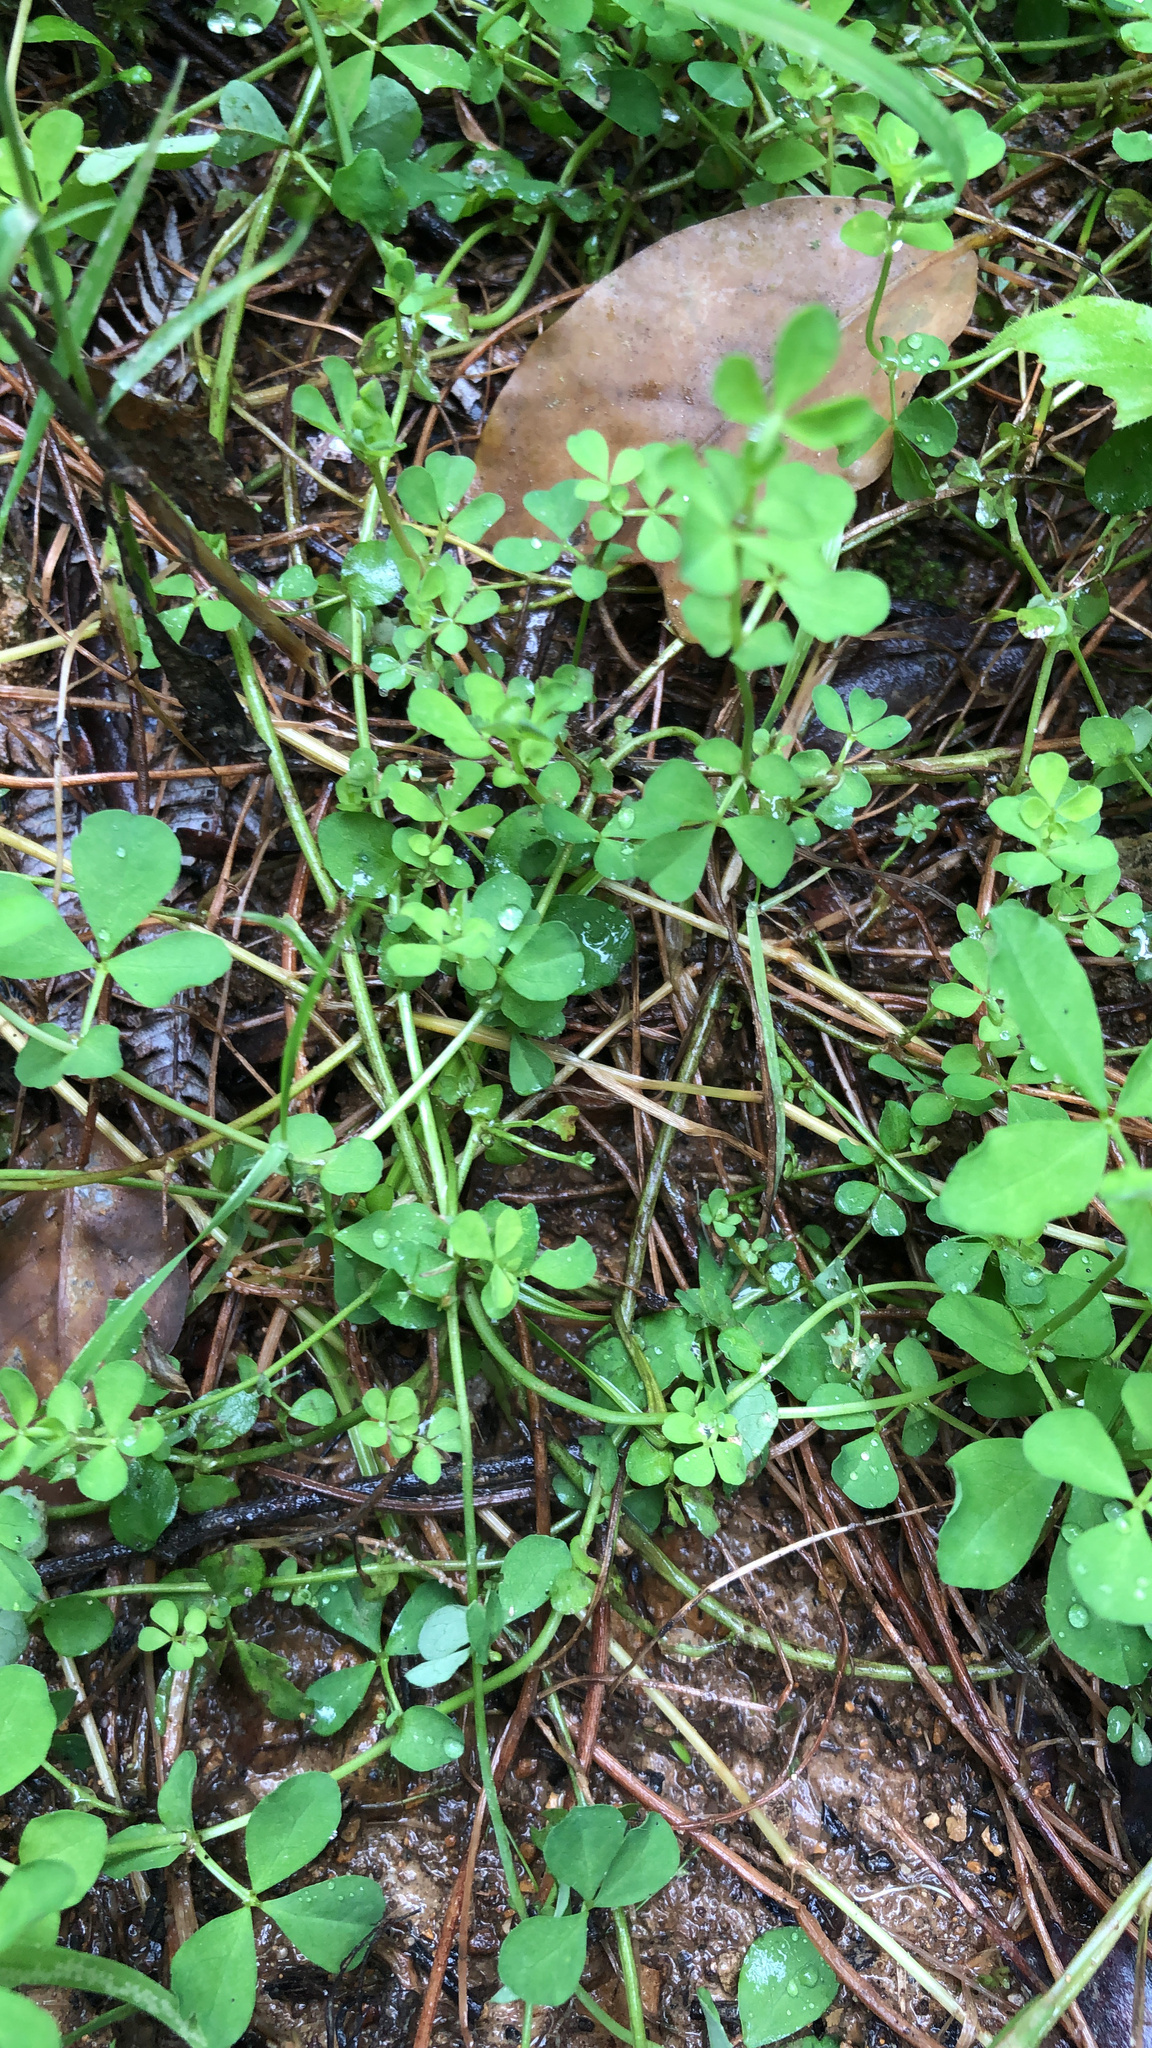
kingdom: Plantae
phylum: Tracheophyta
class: Magnoliopsida
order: Fabales
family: Fabaceae
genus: Lotus
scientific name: Lotus pedunculatus
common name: Greater birdsfoot-trefoil
